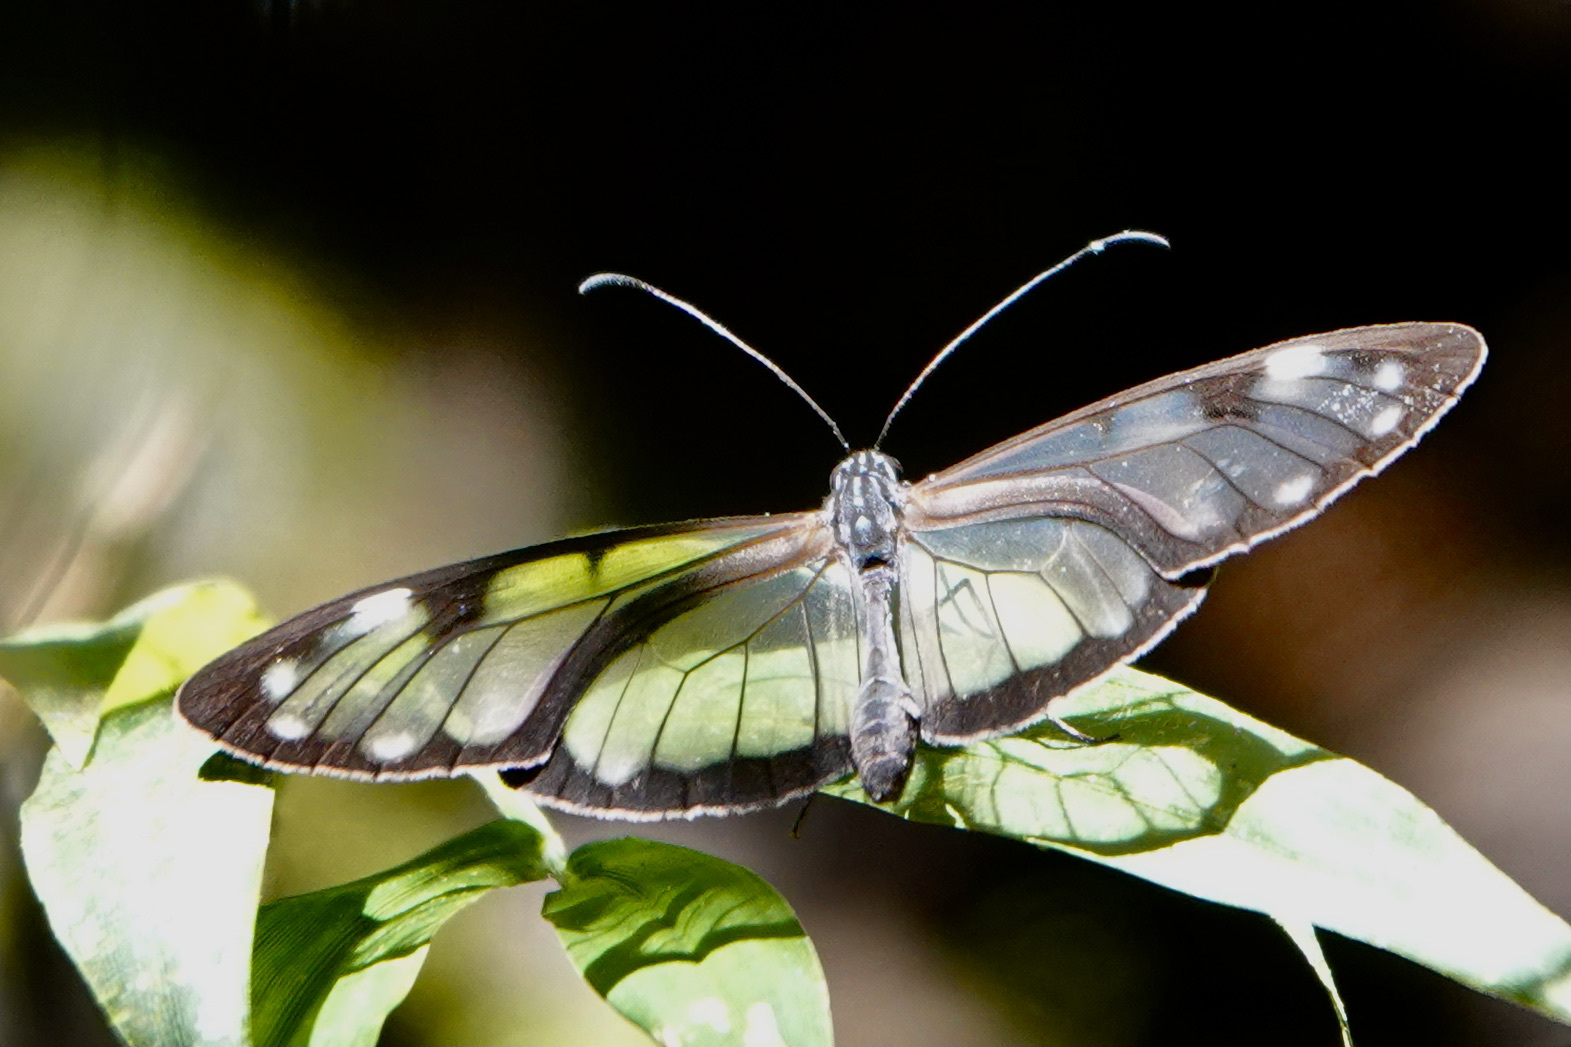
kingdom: Animalia
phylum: Arthropoda
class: Insecta
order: Lepidoptera
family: Nymphalidae
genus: Dircenna
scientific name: Dircenna adina
